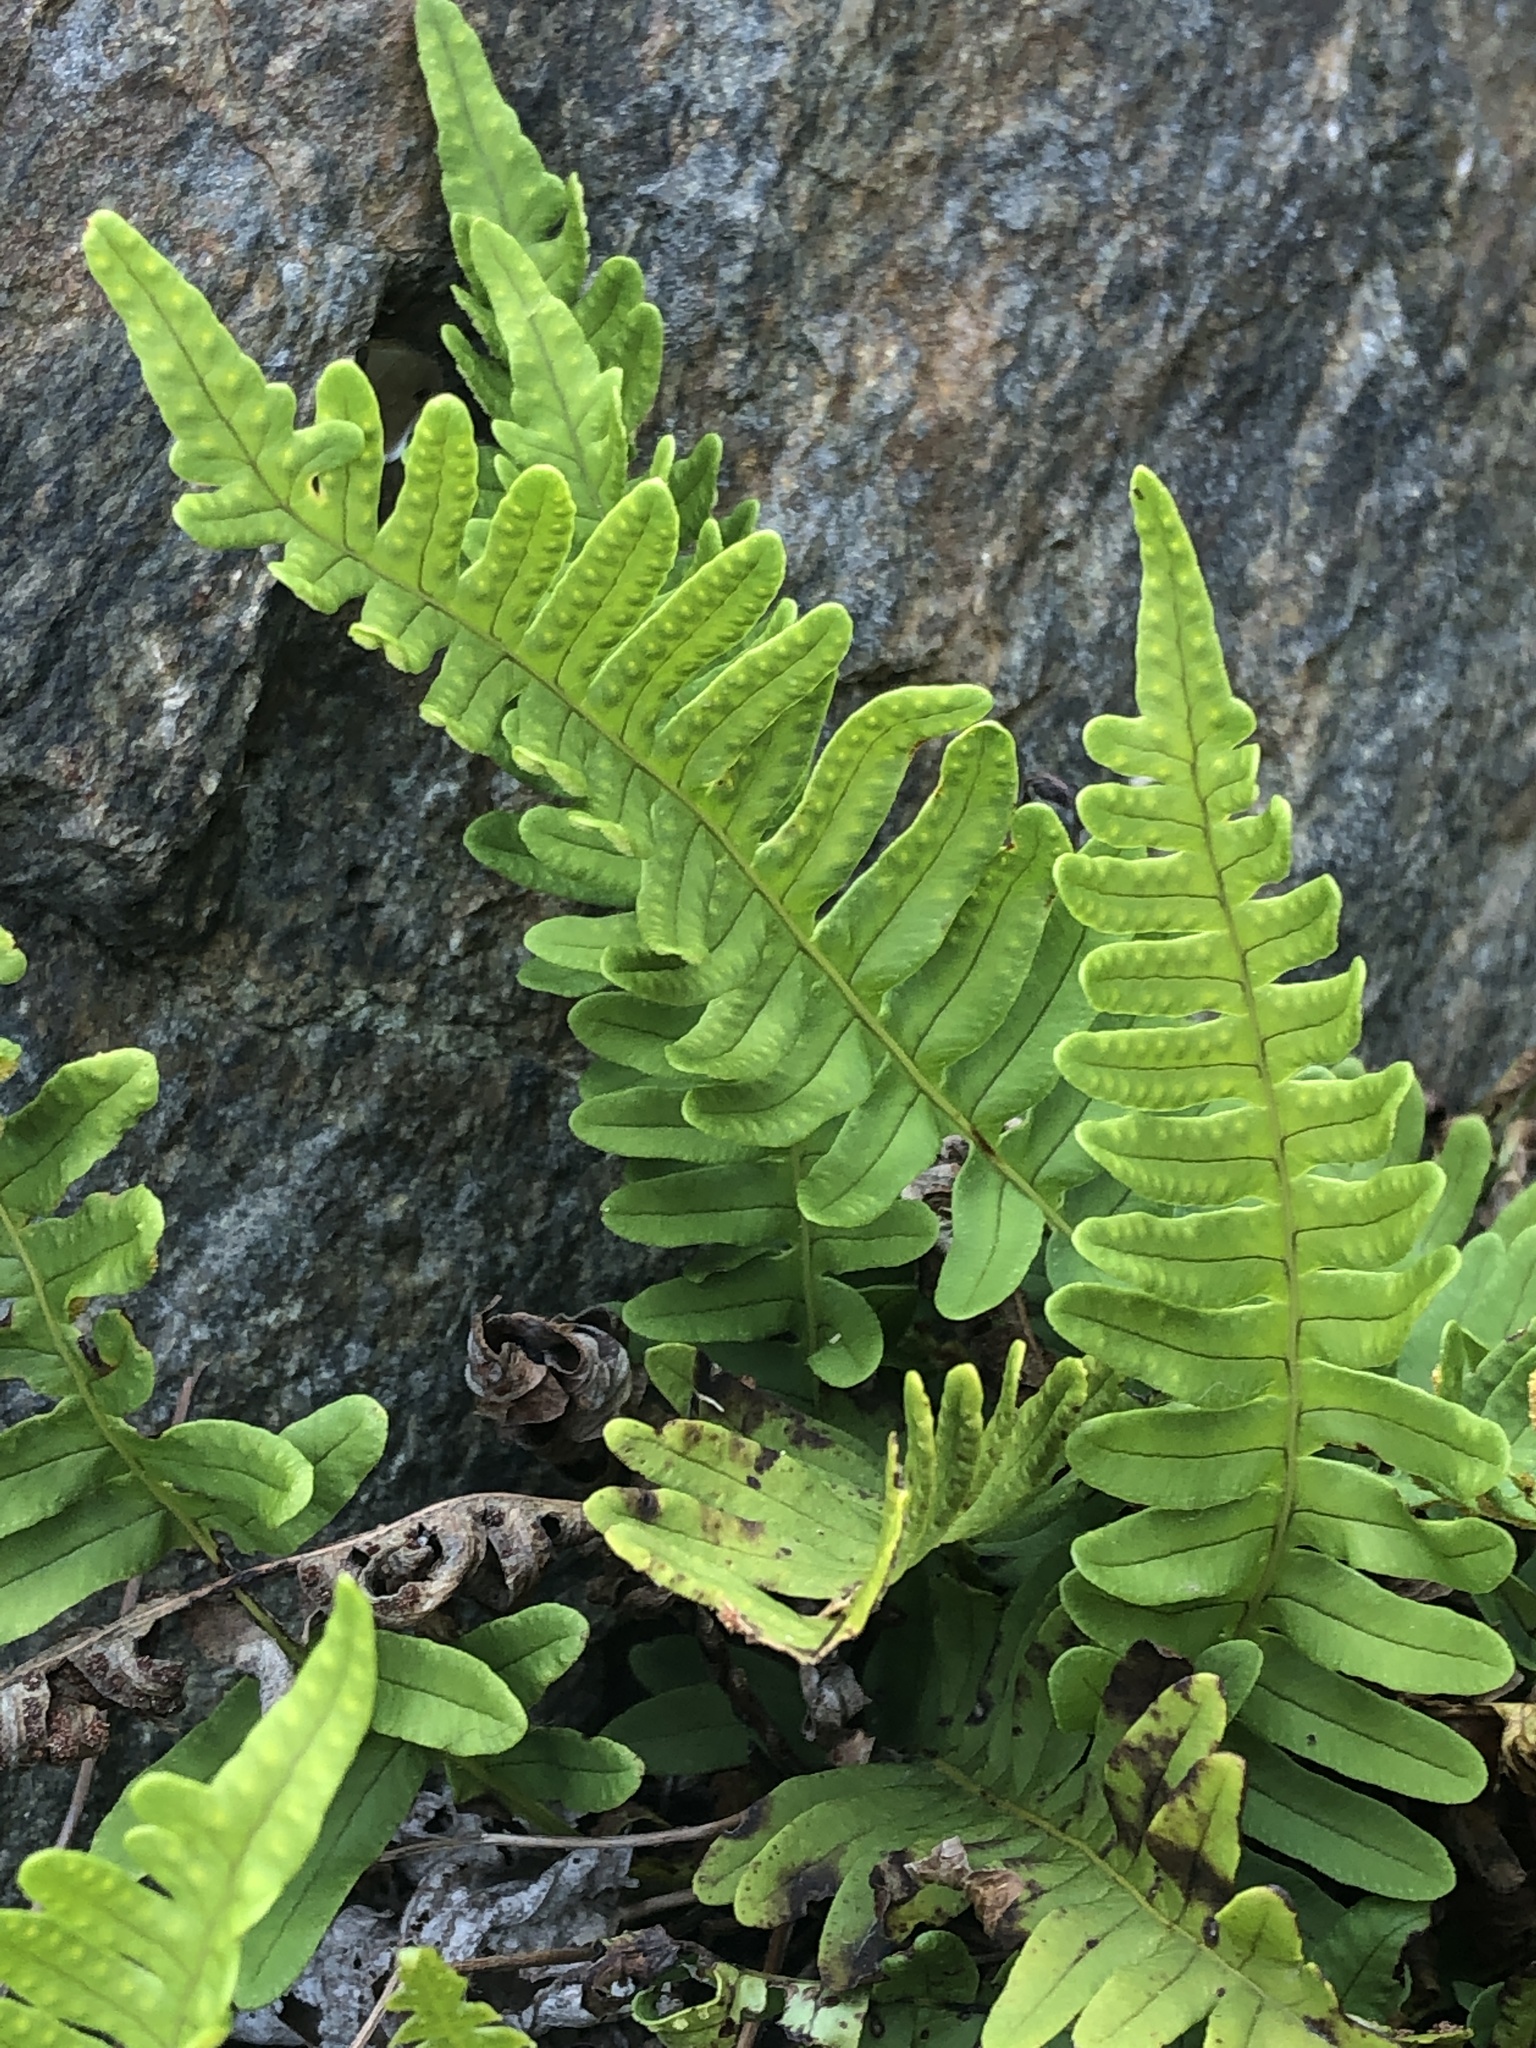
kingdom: Plantae
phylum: Tracheophyta
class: Polypodiopsida
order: Polypodiales
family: Polypodiaceae
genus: Polypodium
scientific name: Polypodium virginianum
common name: American wall fern
